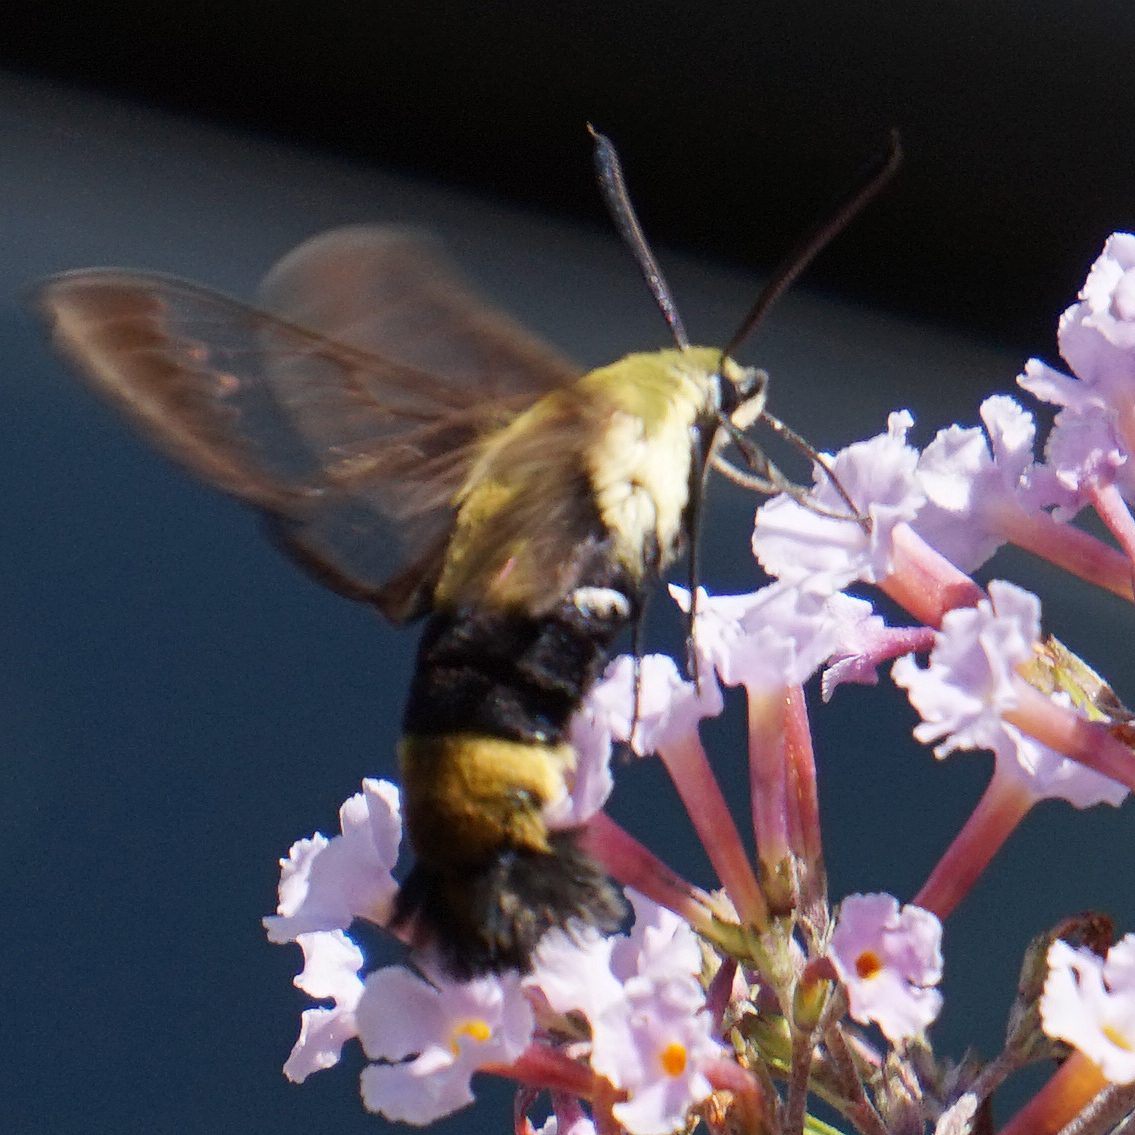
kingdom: Animalia
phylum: Arthropoda
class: Insecta
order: Lepidoptera
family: Sphingidae
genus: Hemaris
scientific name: Hemaris diffinis
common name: Bumblebee moth
